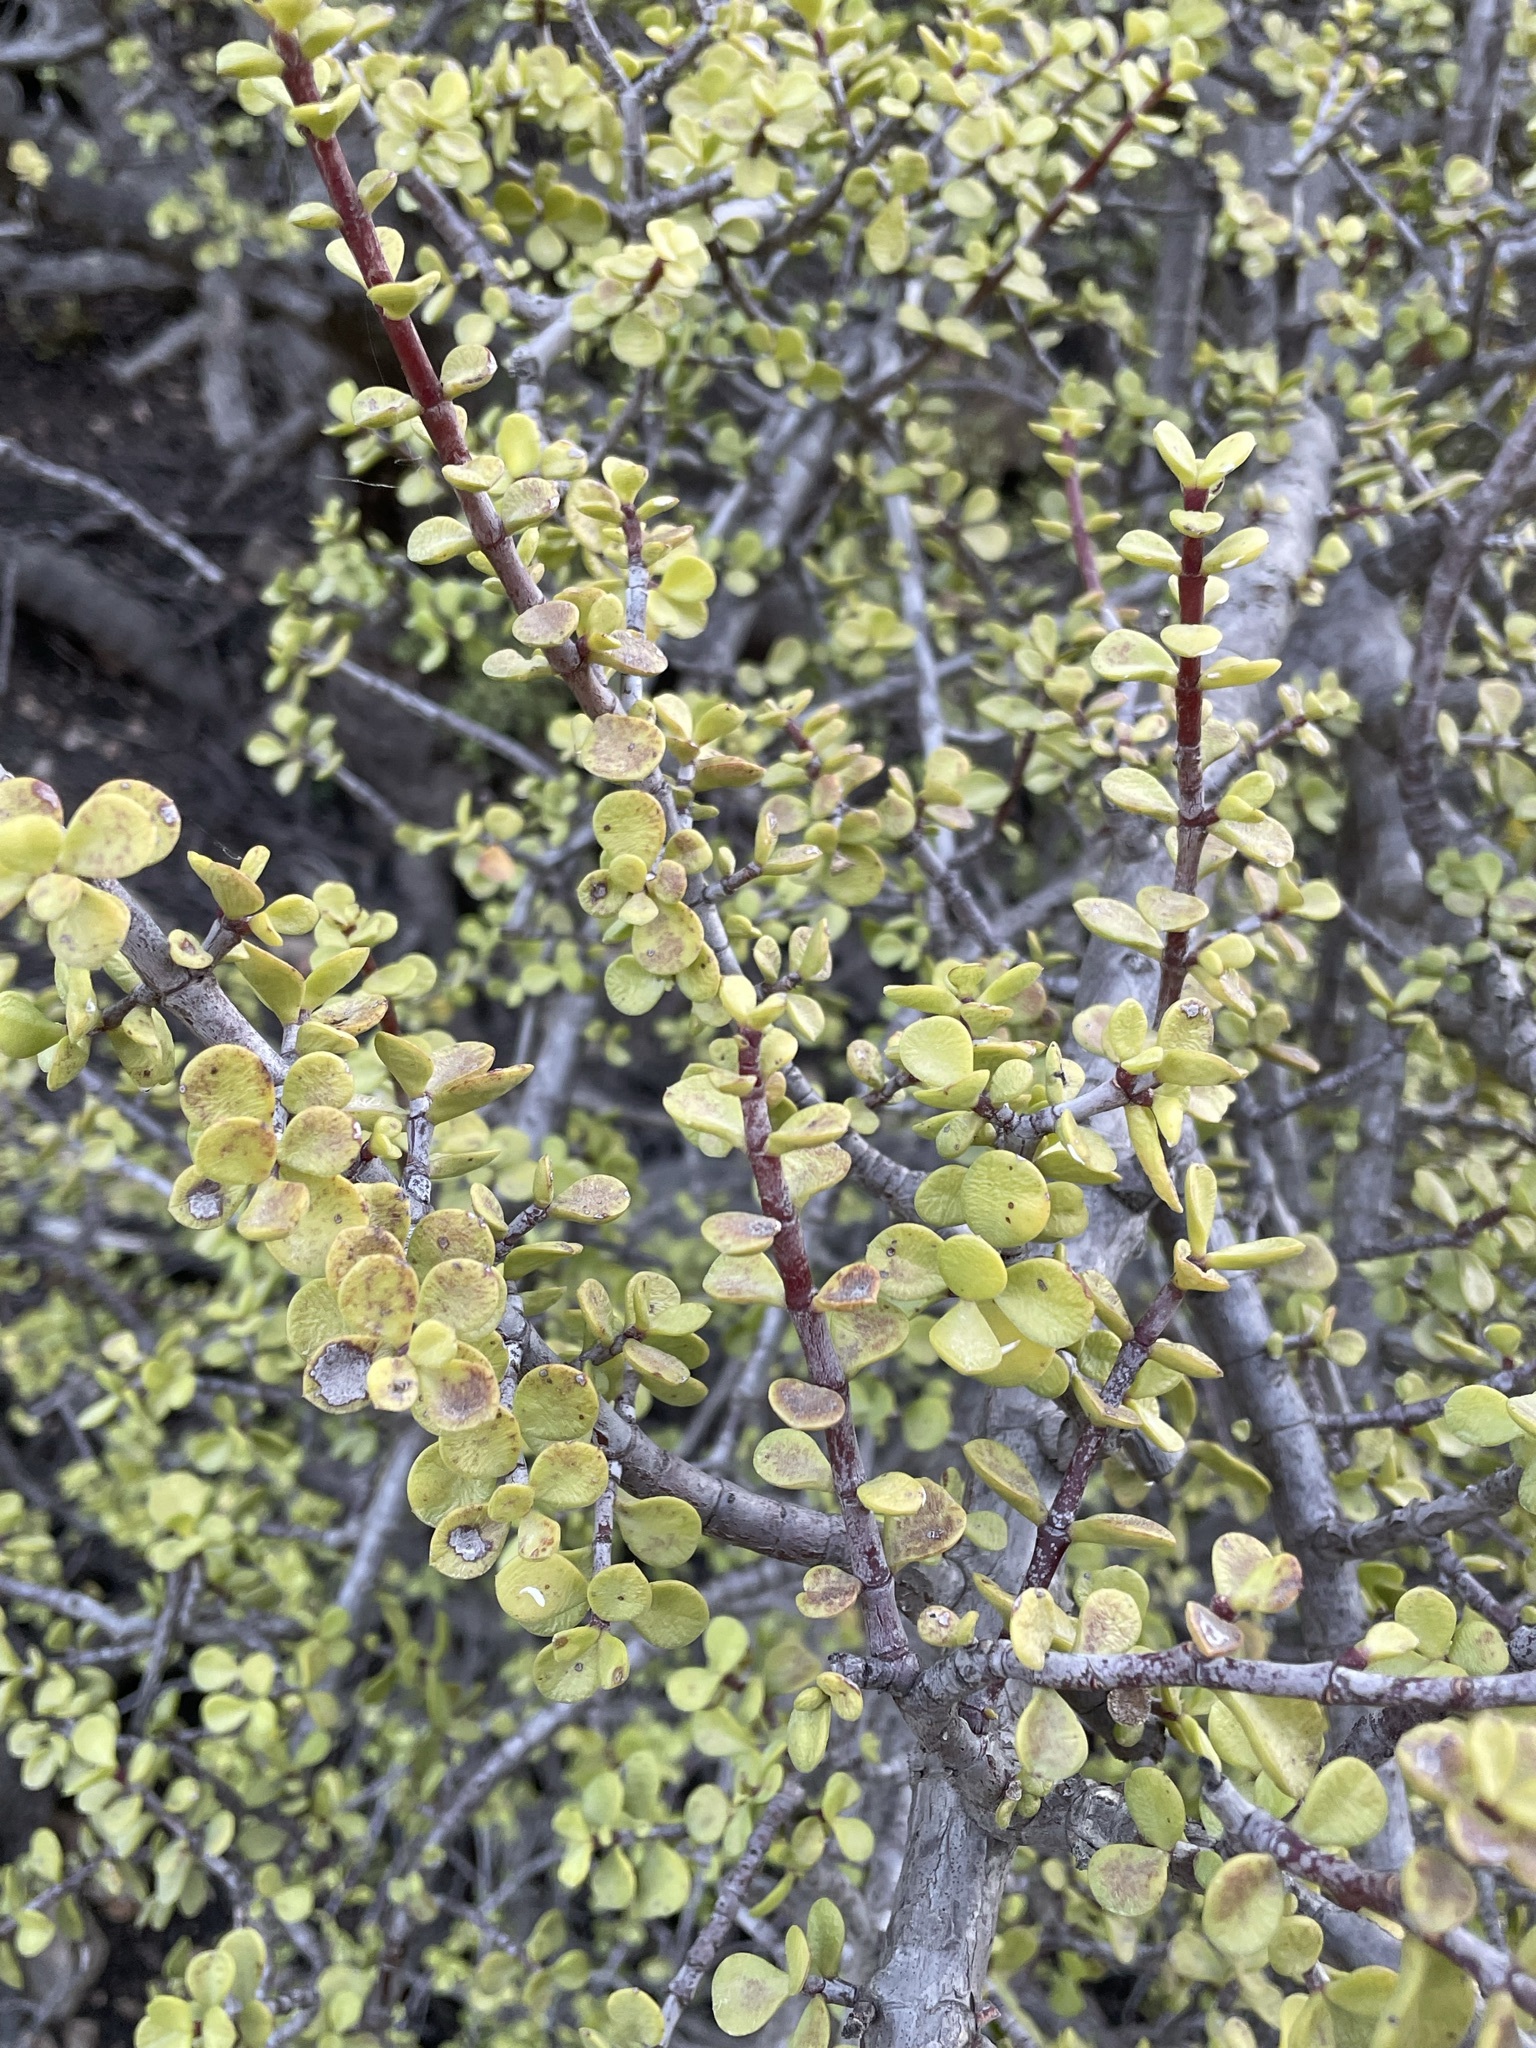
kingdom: Plantae
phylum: Tracheophyta
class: Magnoliopsida
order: Caryophyllales
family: Didiereaceae
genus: Portulacaria
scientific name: Portulacaria afra
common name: Elephant-bush
